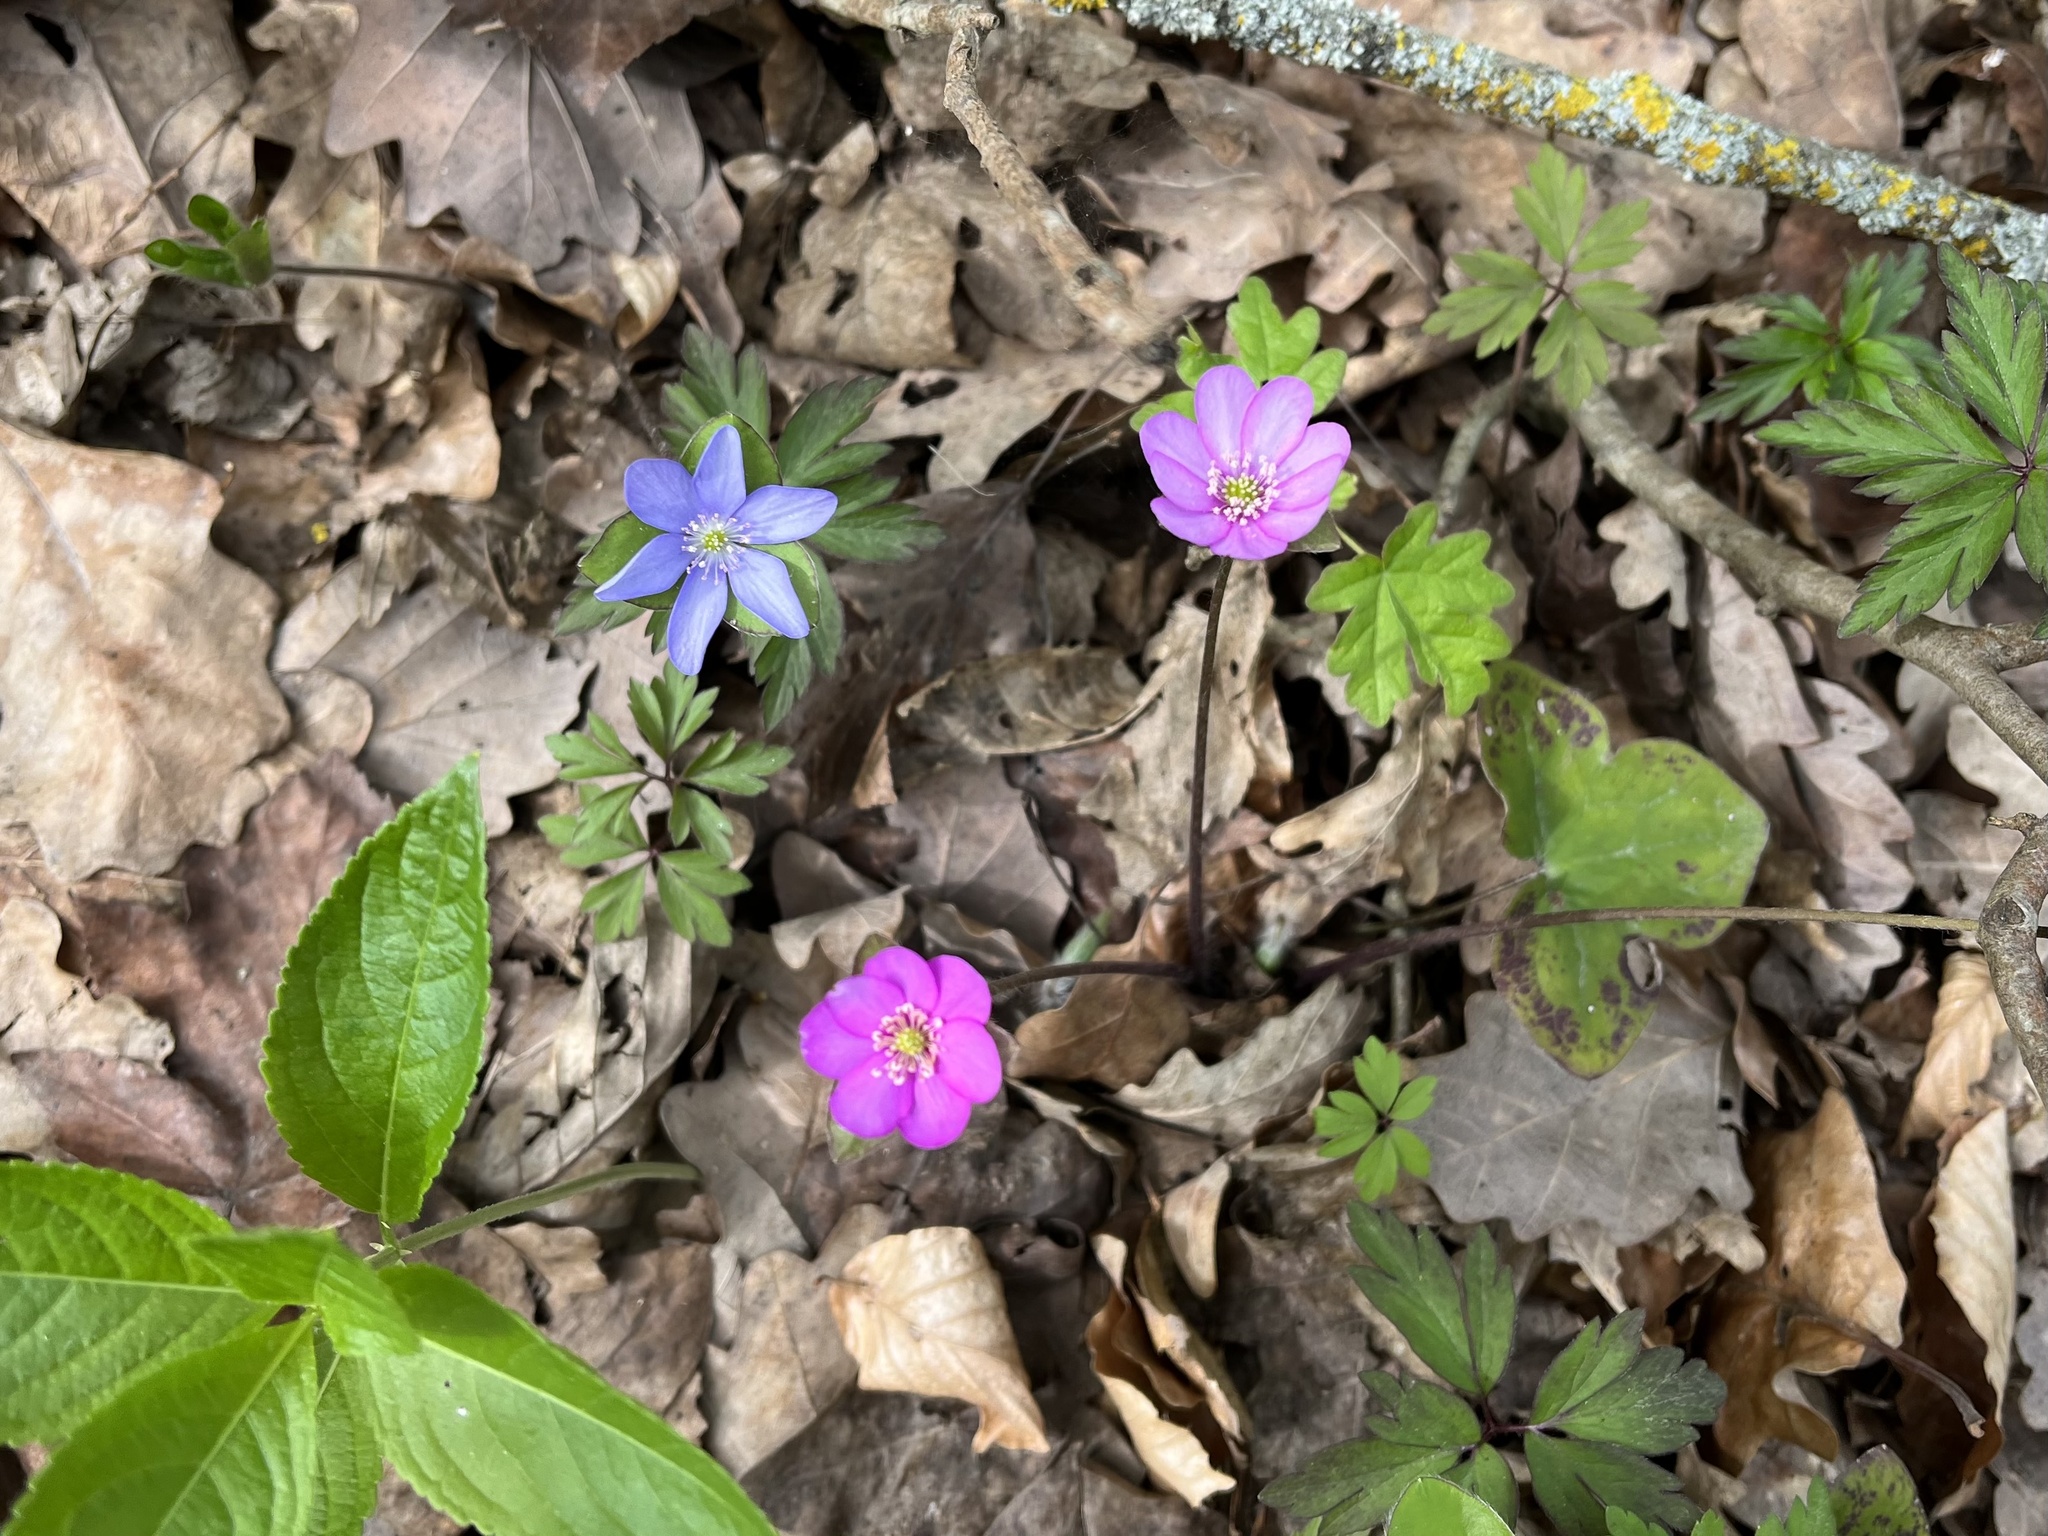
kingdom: Plantae
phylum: Tracheophyta
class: Magnoliopsida
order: Ranunculales
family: Ranunculaceae
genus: Hepatica
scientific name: Hepatica nobilis
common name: Liverleaf
